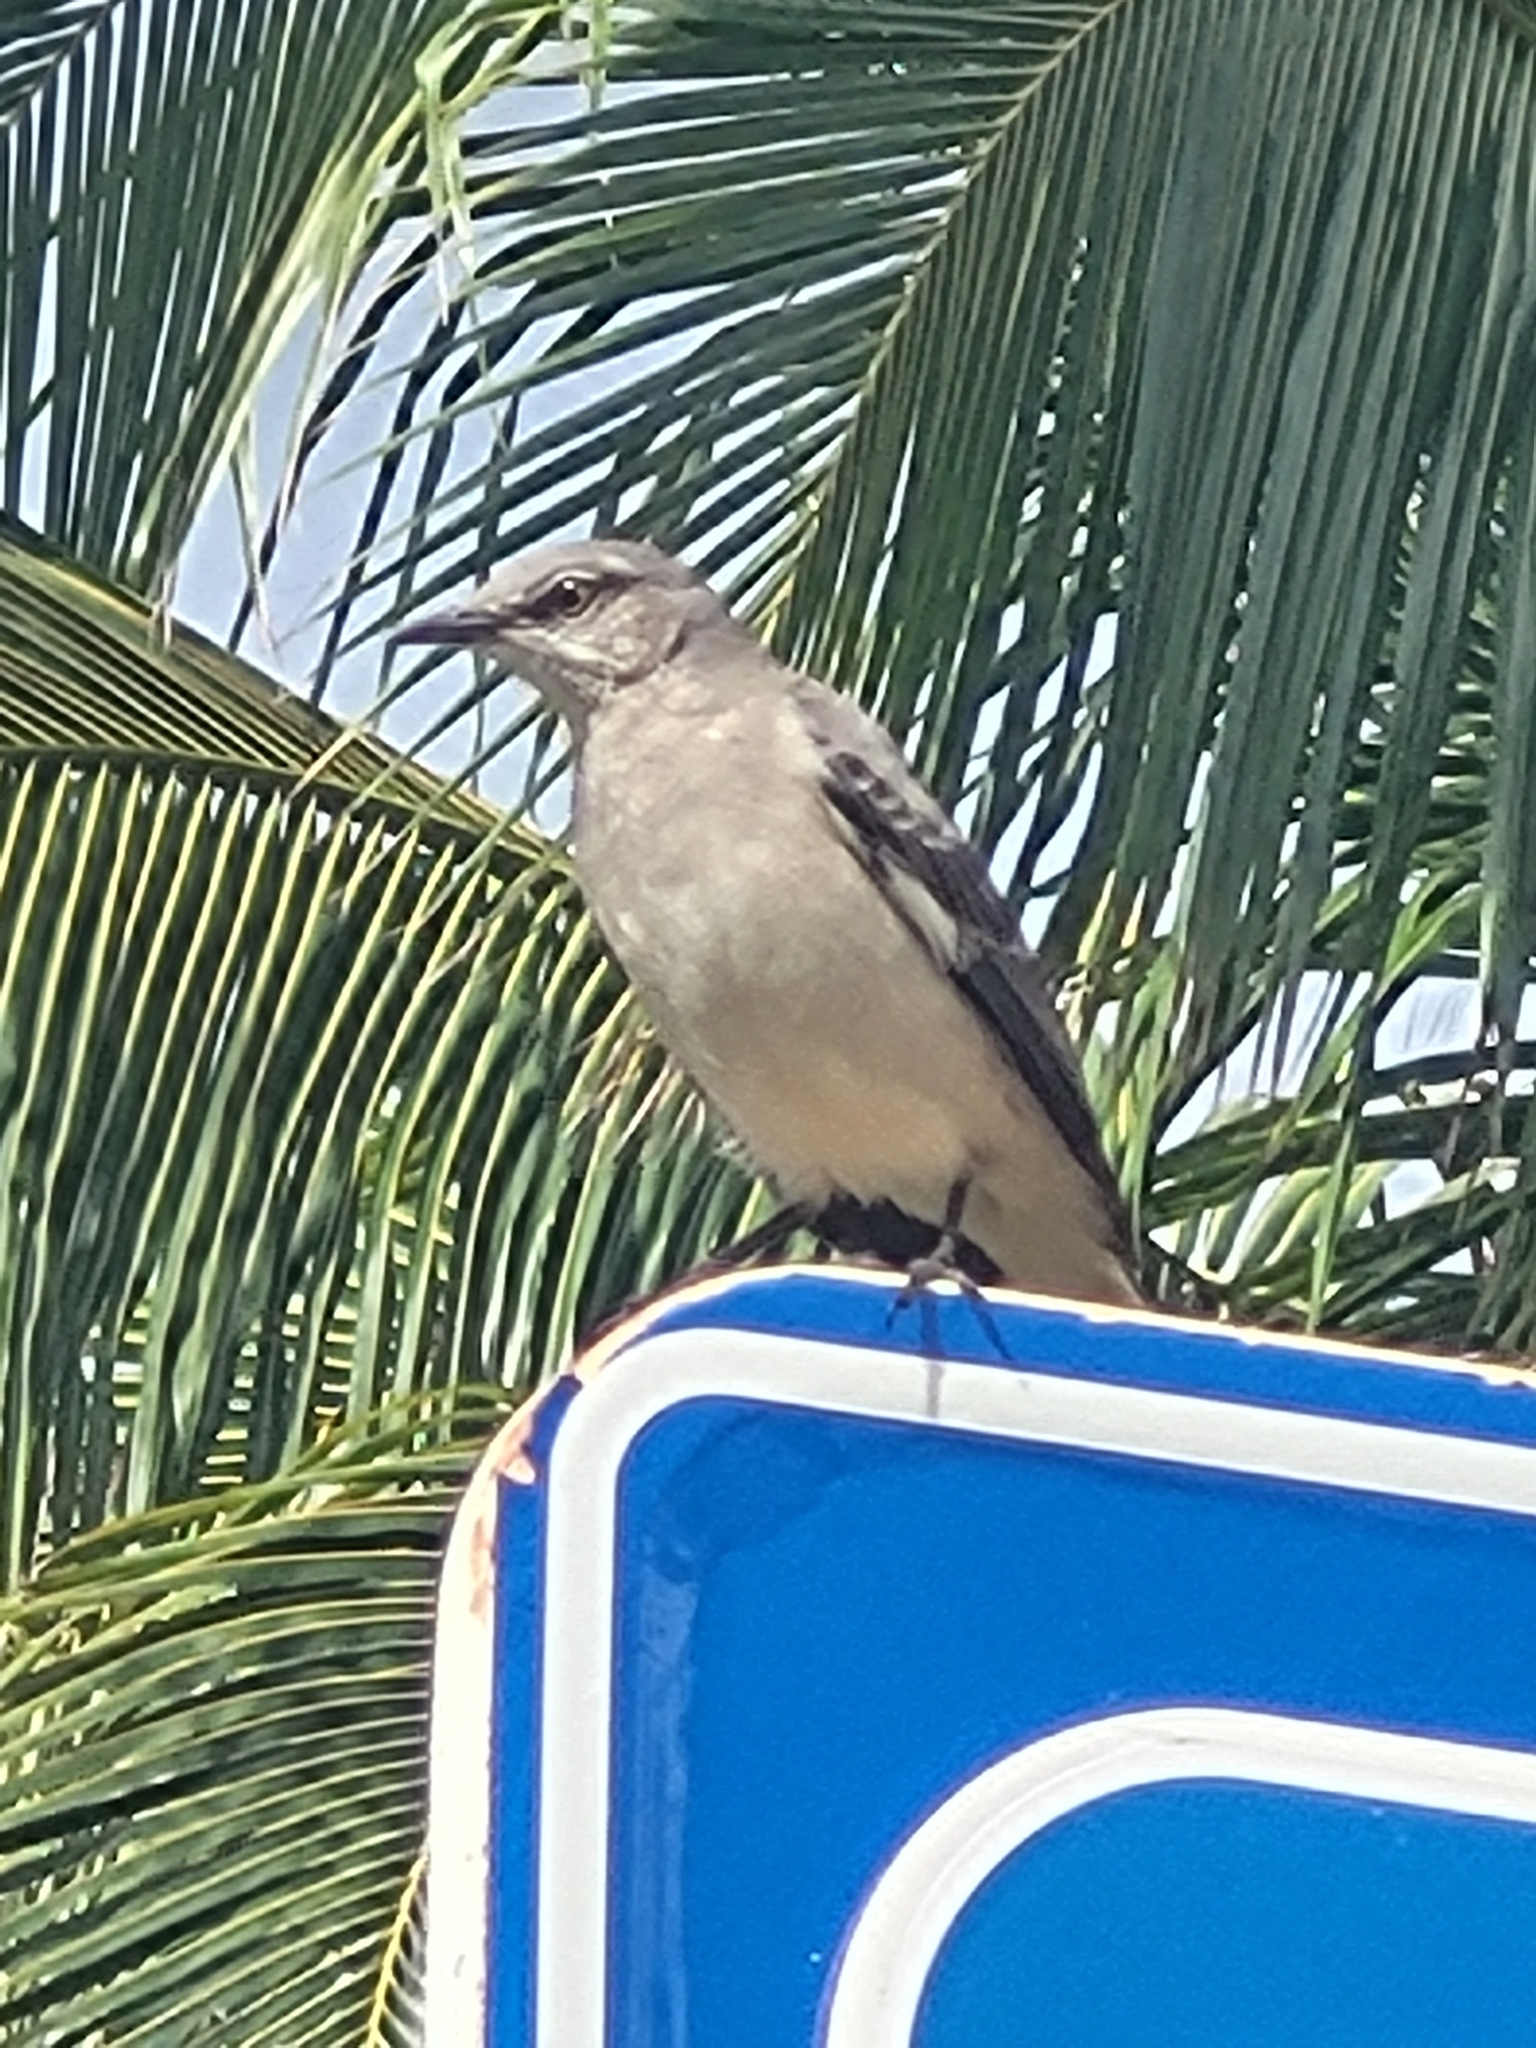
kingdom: Animalia
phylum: Chordata
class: Aves
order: Passeriformes
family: Mimidae
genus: Mimus
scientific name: Mimus polyglottos
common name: Northern mockingbird
